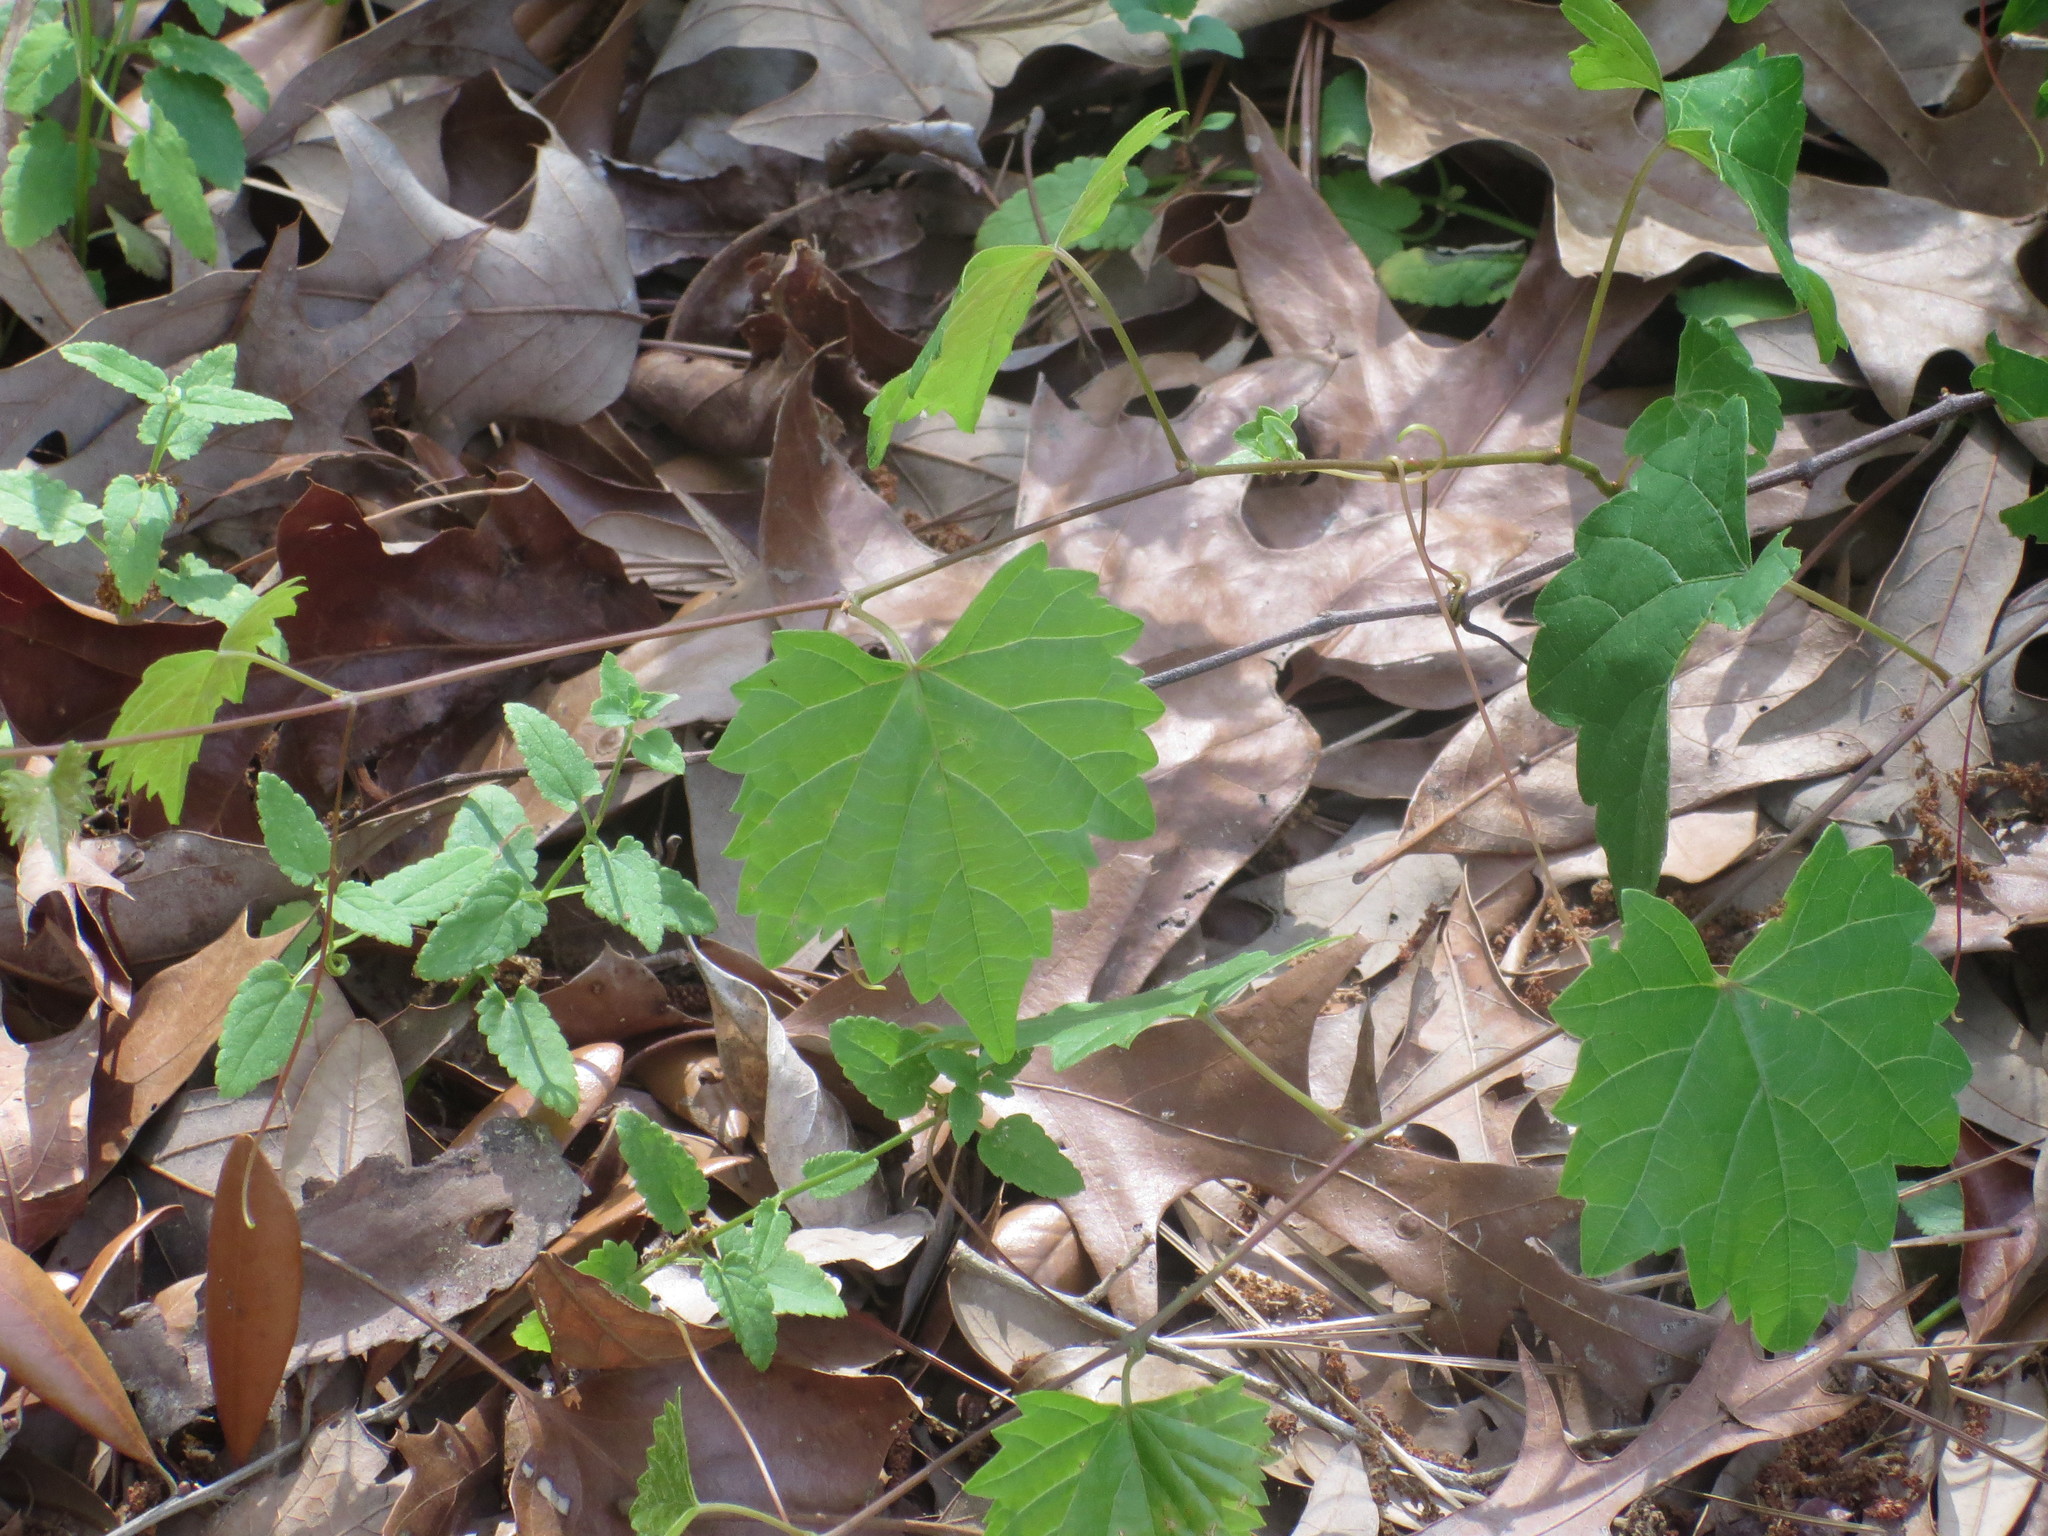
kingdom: Plantae
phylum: Tracheophyta
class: Magnoliopsida
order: Vitales
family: Vitaceae
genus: Vitis
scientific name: Vitis rotundifolia
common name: Muscadine grape
